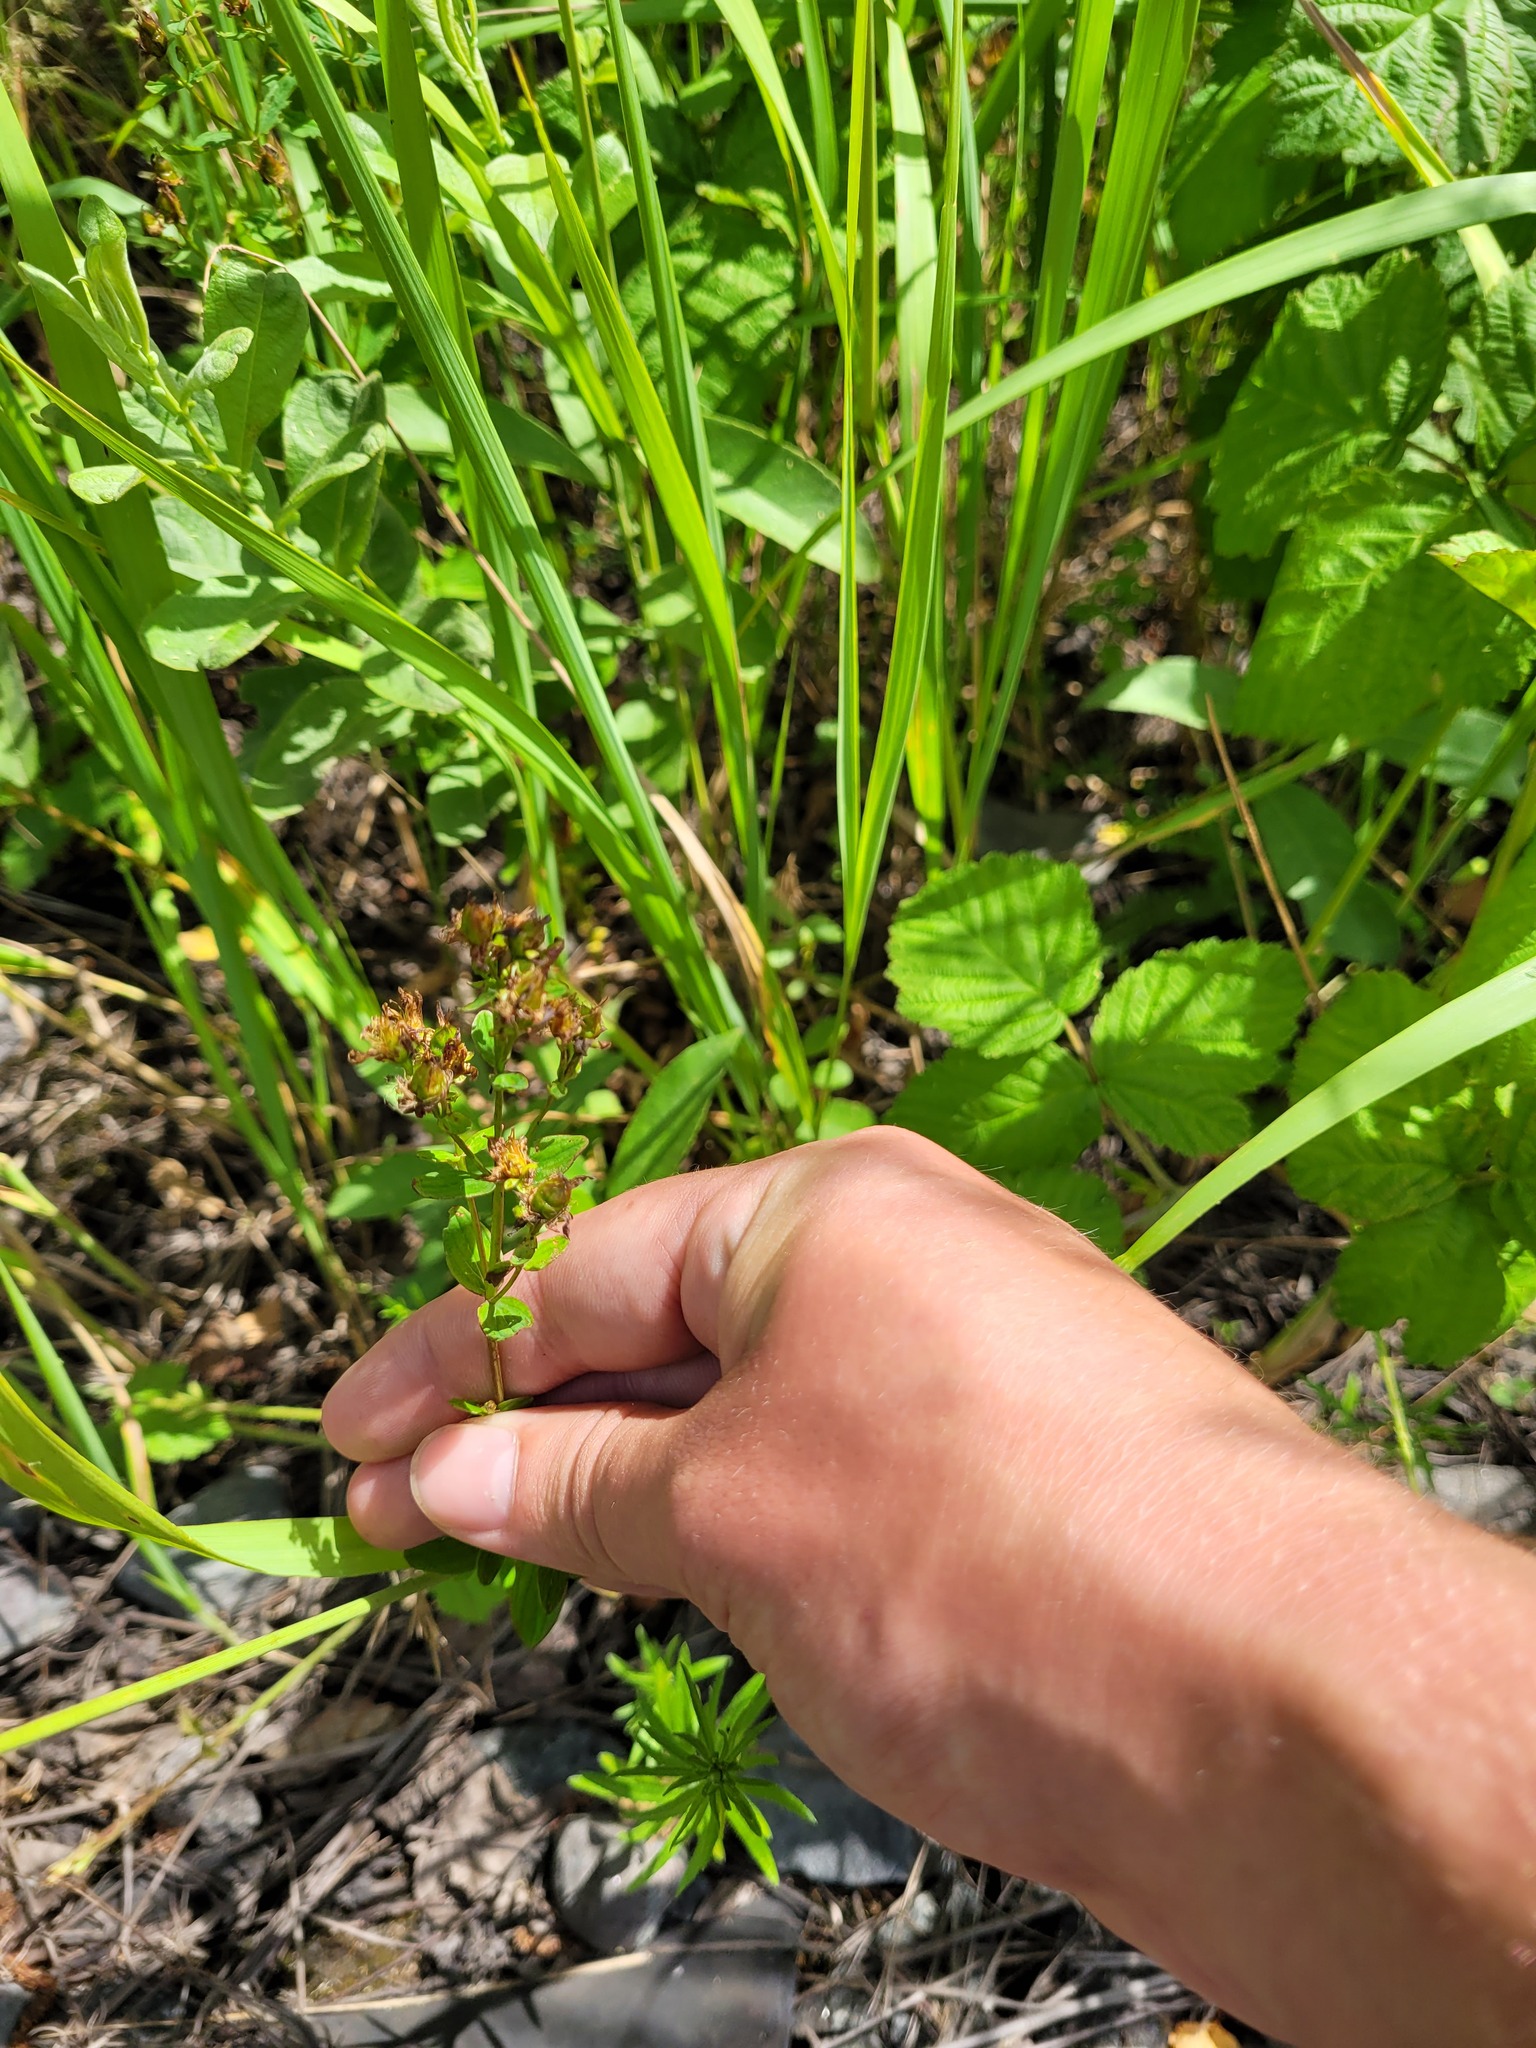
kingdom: Plantae
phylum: Tracheophyta
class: Magnoliopsida
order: Malpighiales
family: Hypericaceae
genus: Hypericum
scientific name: Hypericum maculatum
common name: Imperforate st. john's-wort
